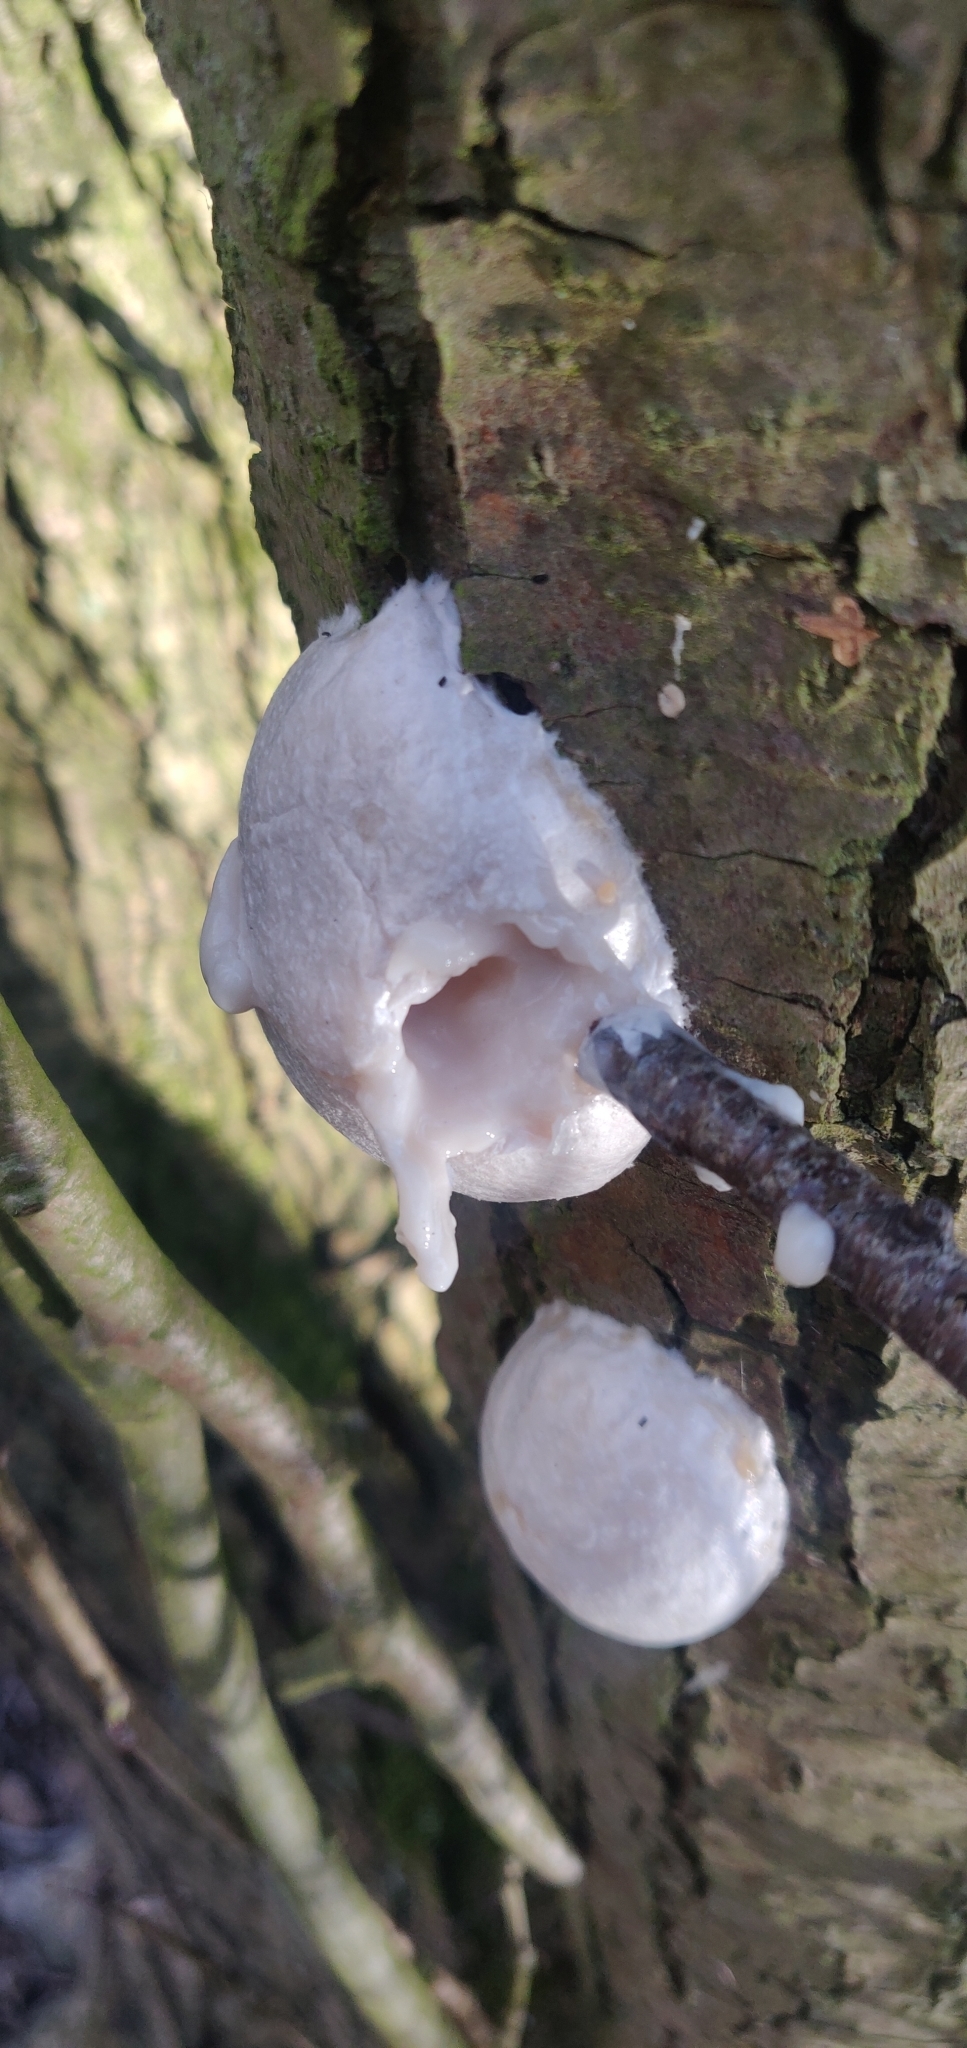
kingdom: Protozoa
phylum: Mycetozoa
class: Myxomycetes
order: Cribrariales
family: Tubiferaceae
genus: Reticularia
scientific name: Reticularia lycoperdon
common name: False puffball
